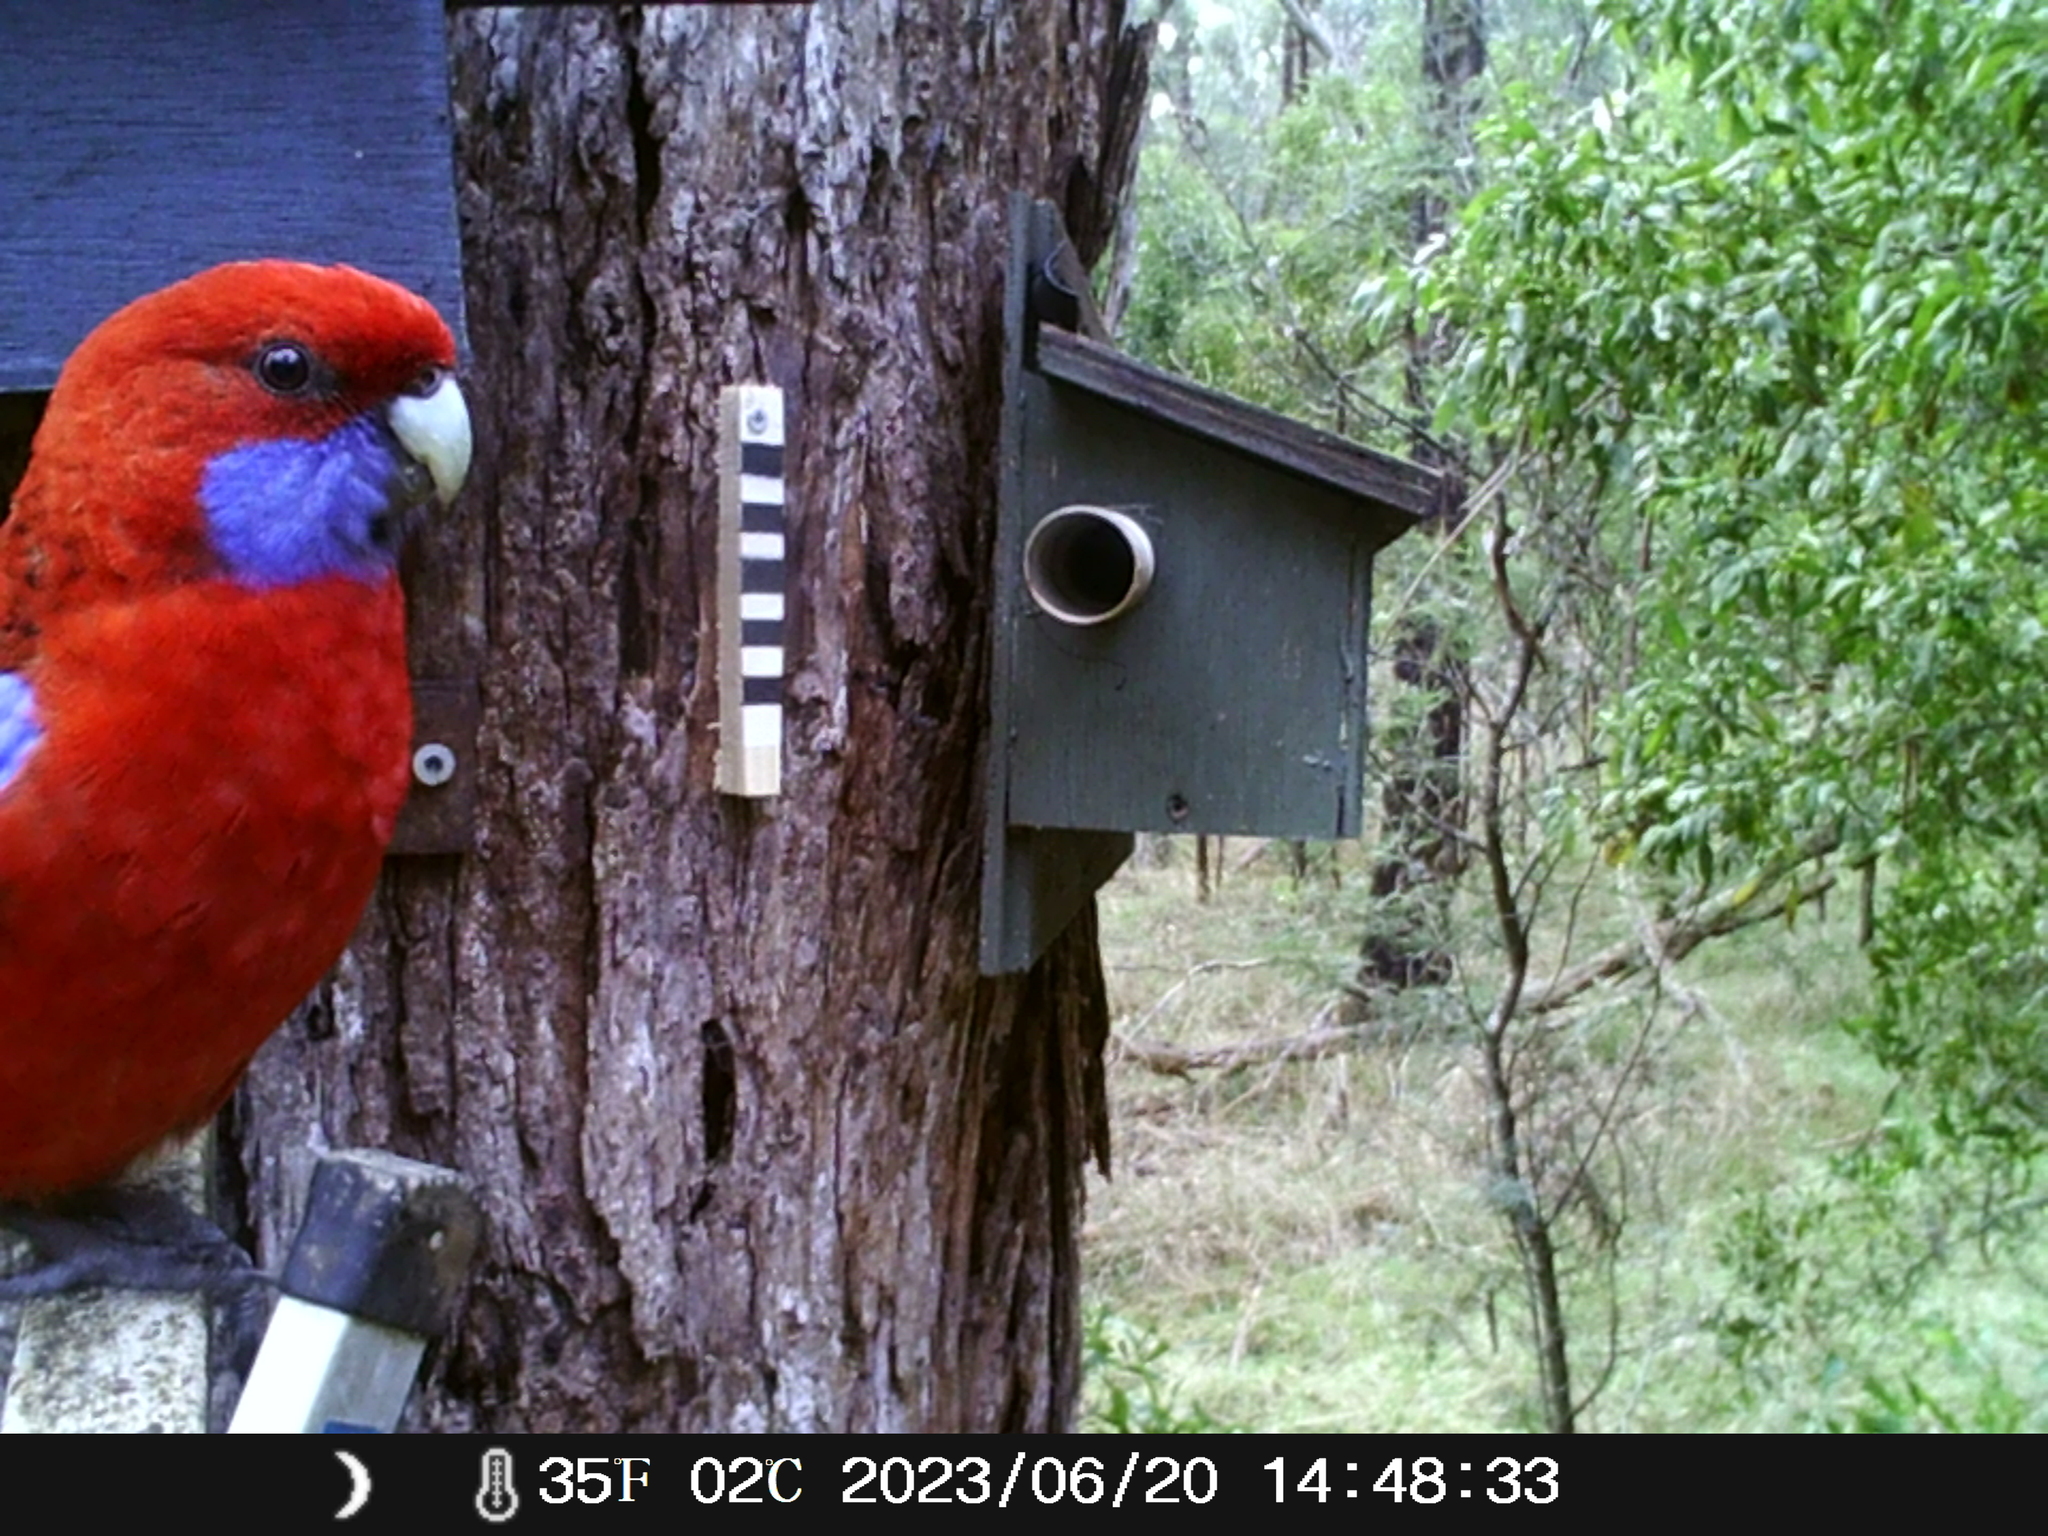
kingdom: Animalia
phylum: Chordata
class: Aves
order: Psittaciformes
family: Psittacidae
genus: Platycercus
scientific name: Platycercus elegans
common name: Crimson rosella
